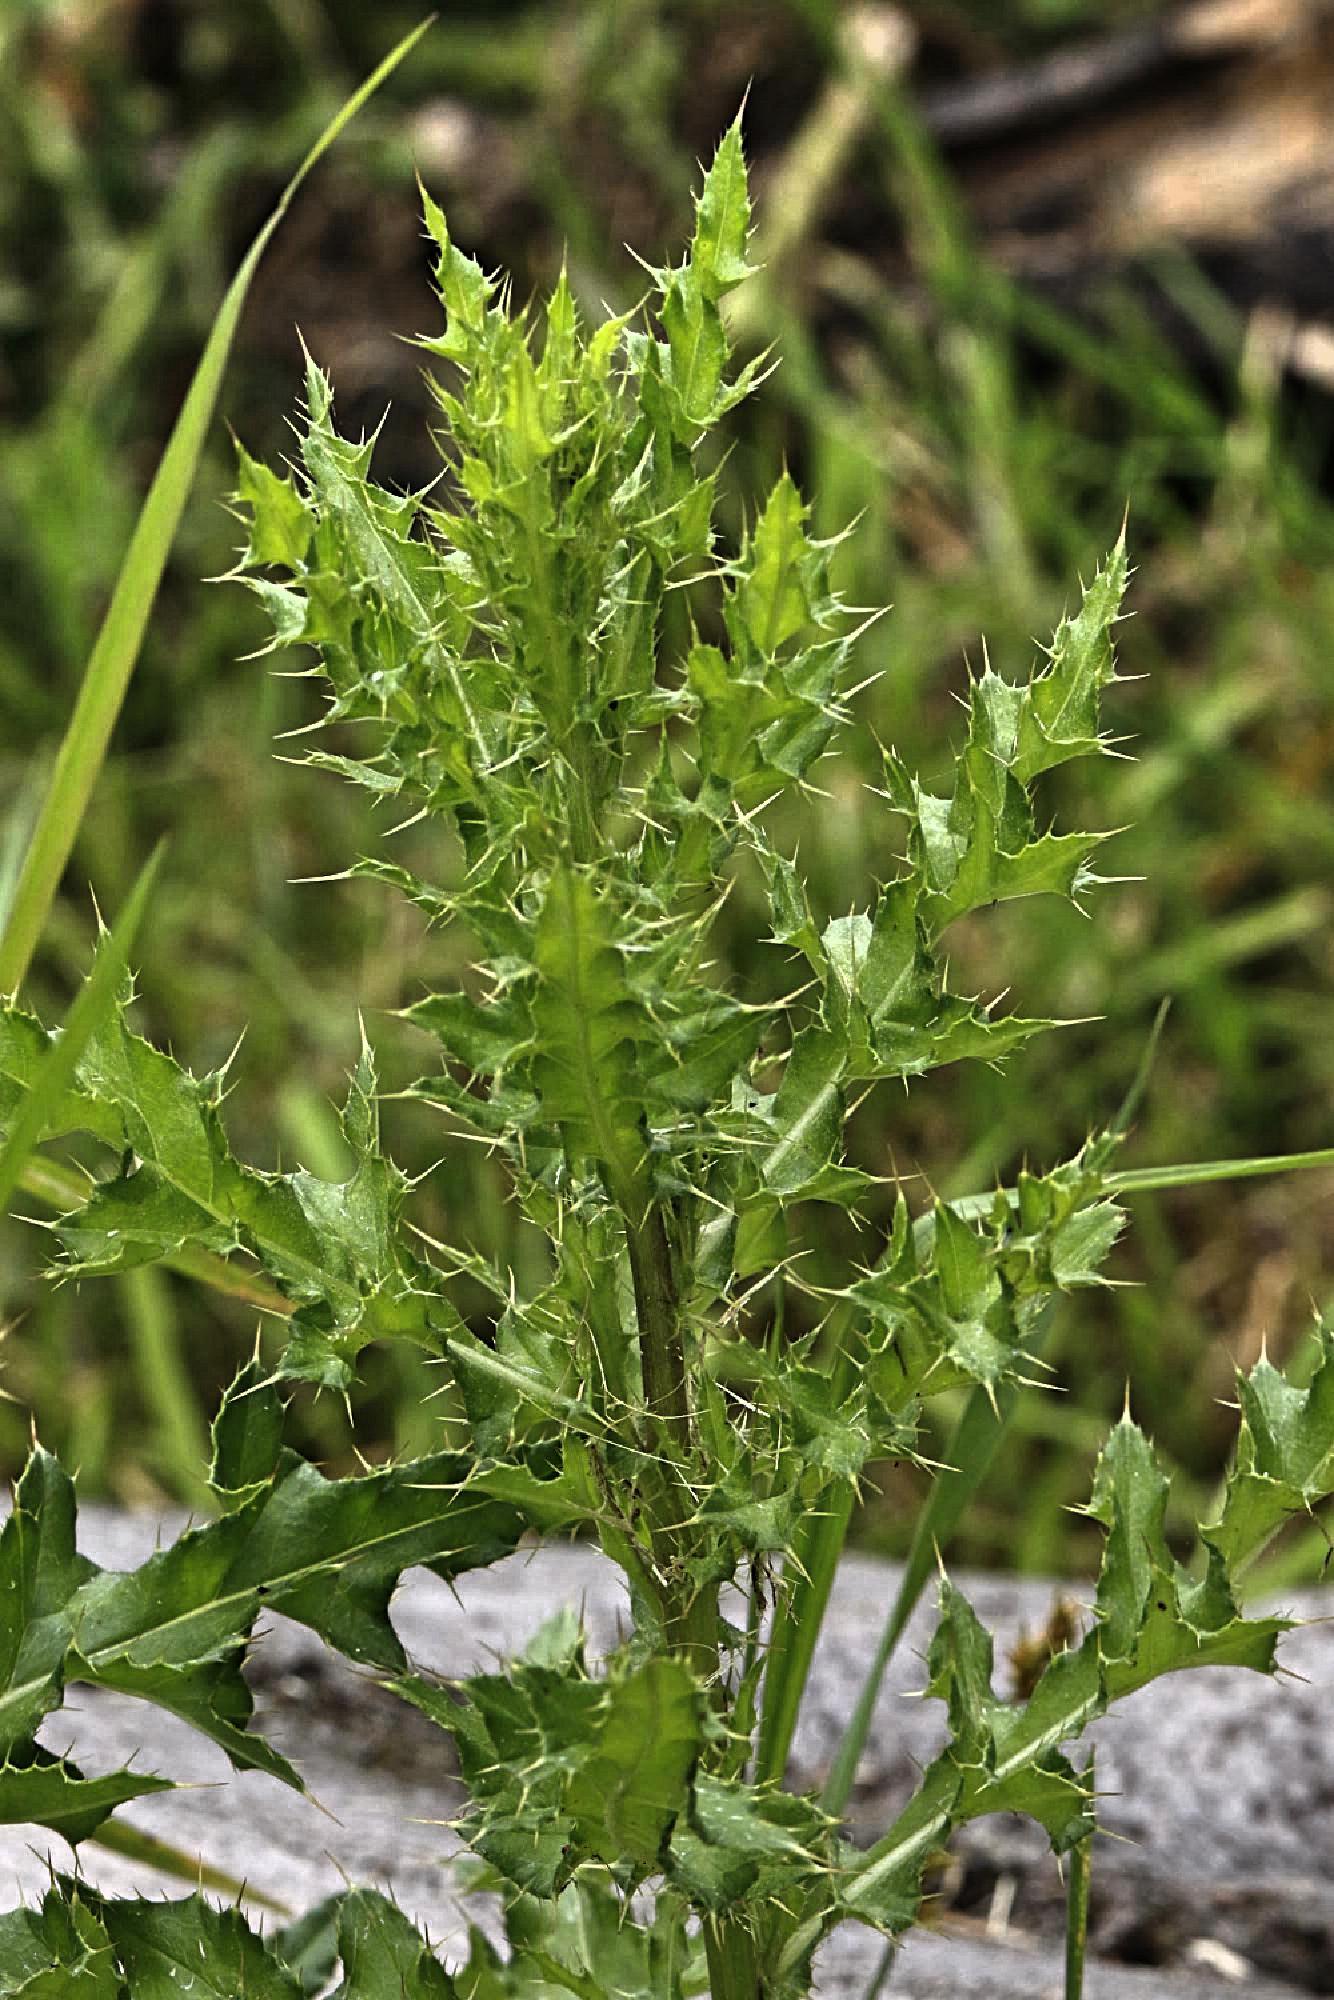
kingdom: Plantae
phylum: Tracheophyta
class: Magnoliopsida
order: Asterales
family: Asteraceae
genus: Cirsium
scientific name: Cirsium arvense
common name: Creeping thistle
